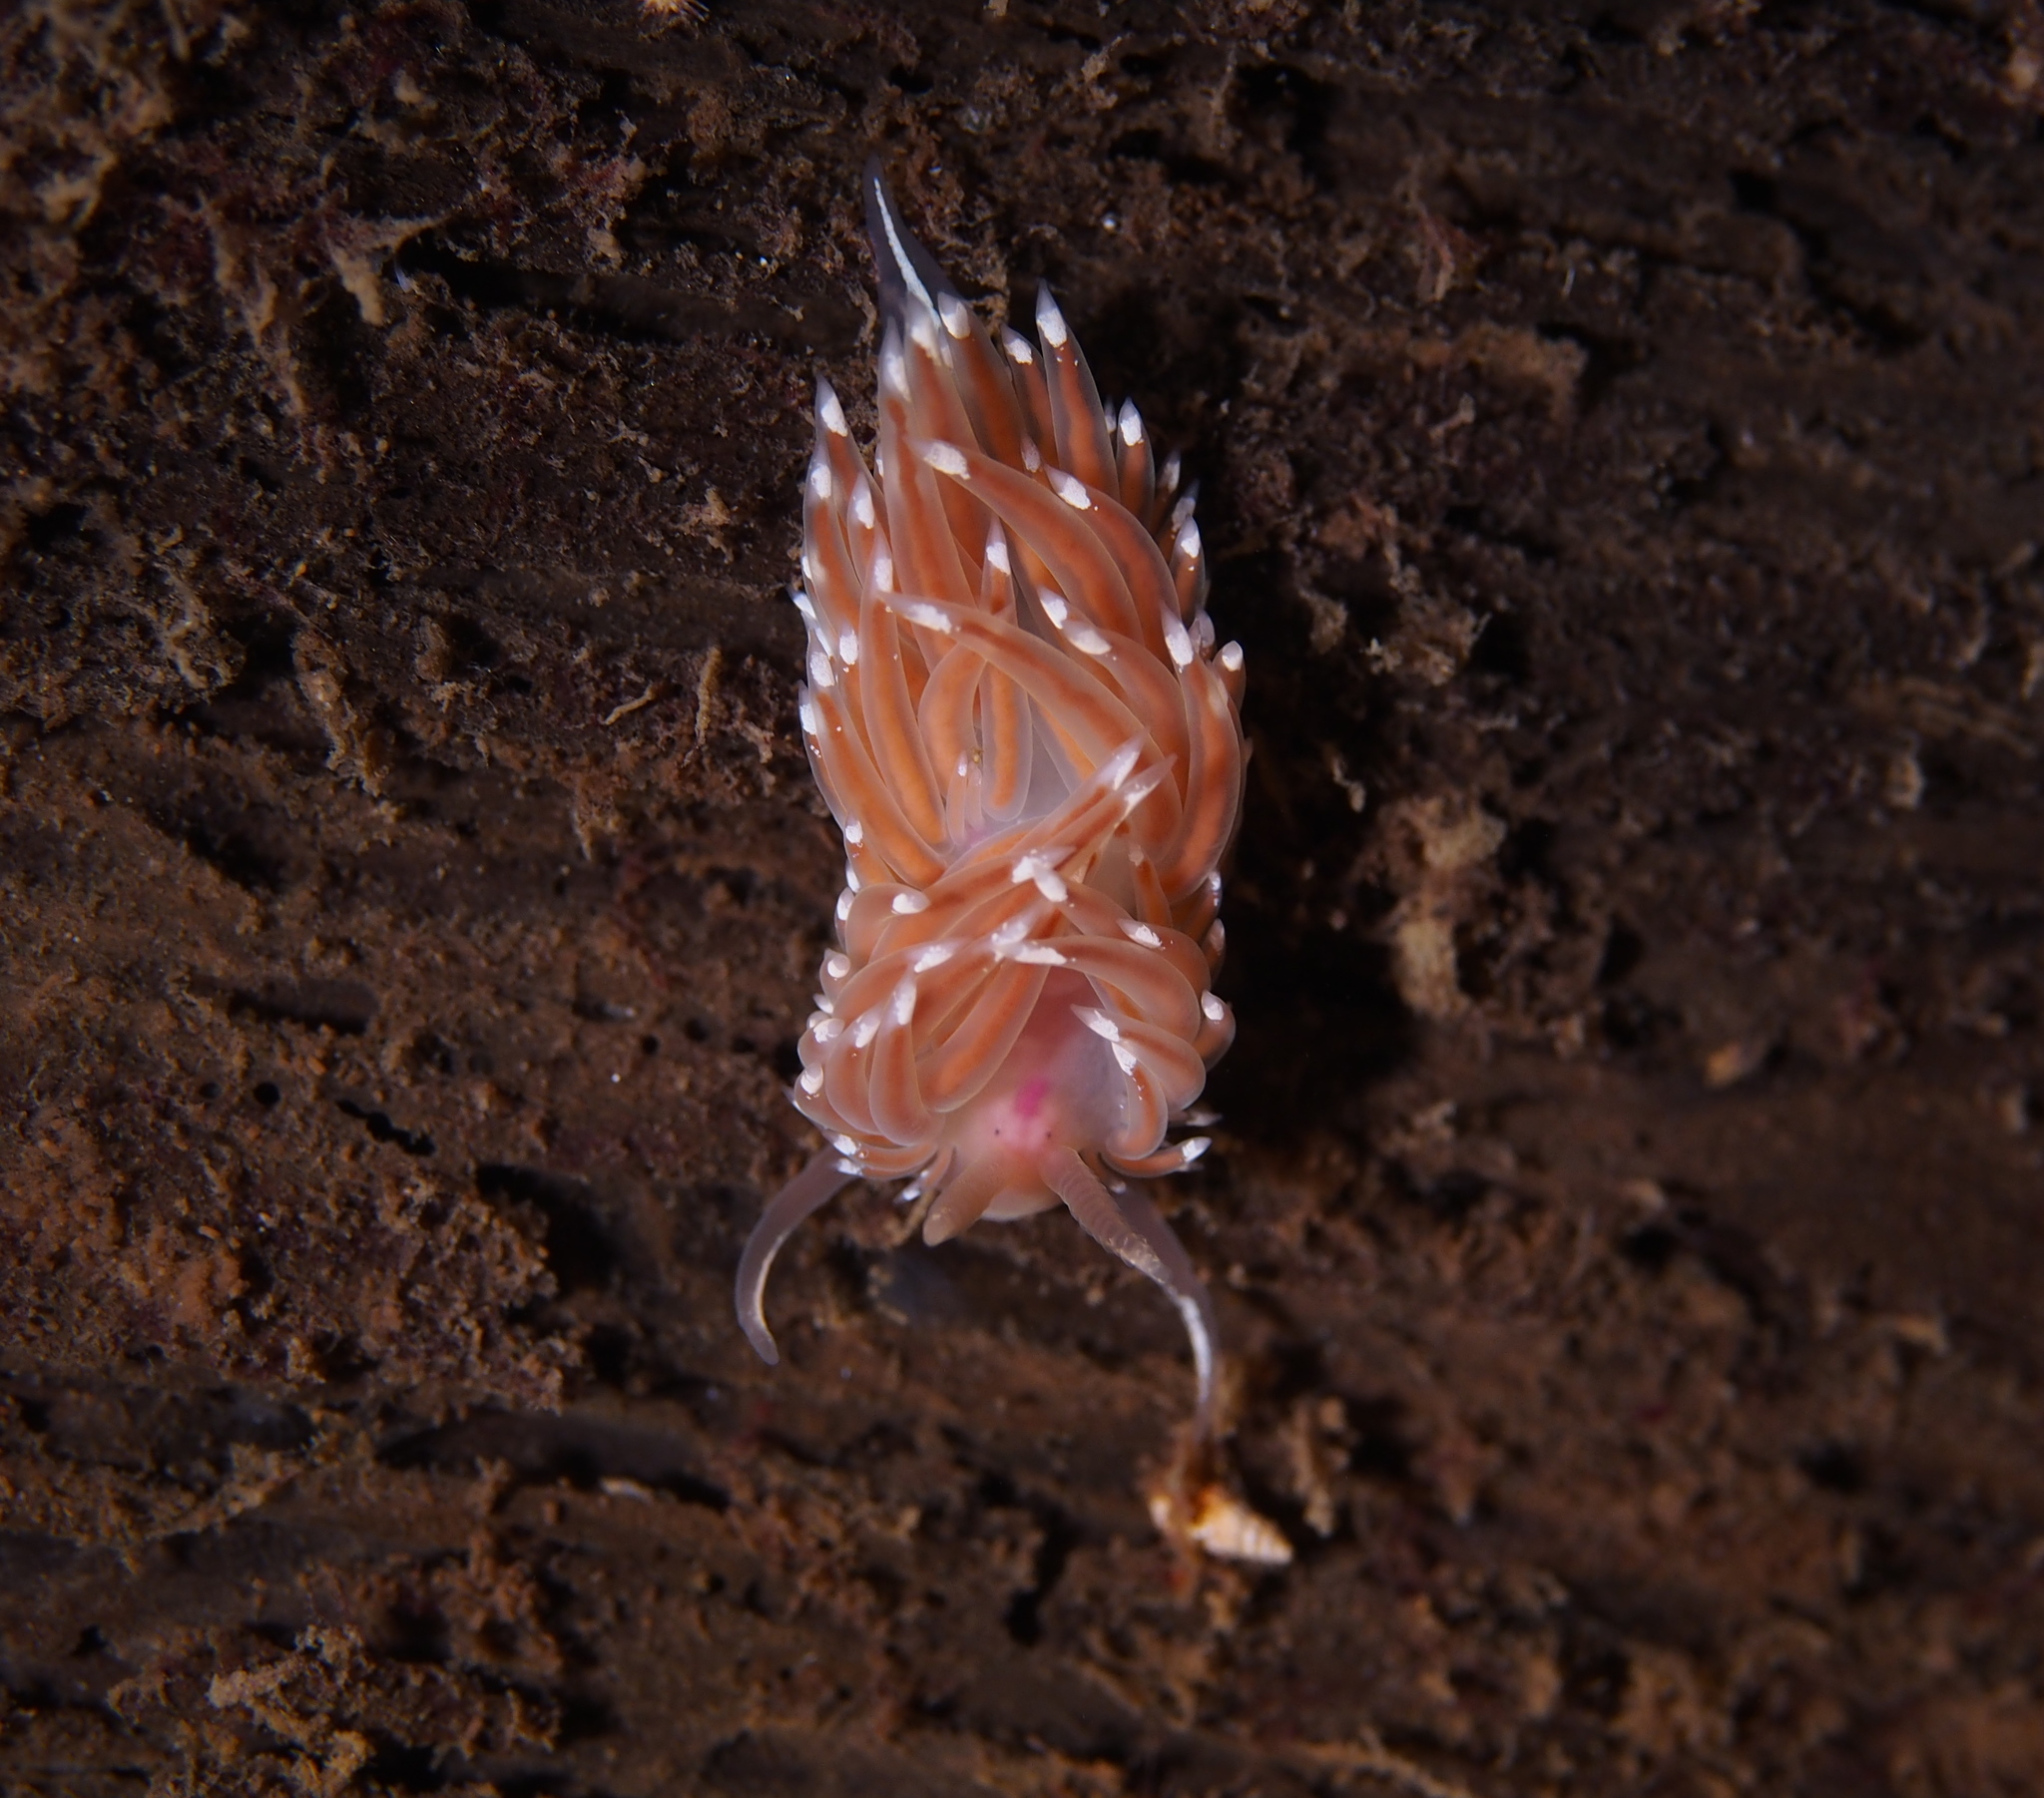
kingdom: Animalia
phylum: Mollusca
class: Gastropoda
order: Nudibranchia
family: Facelinidae
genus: Facelina
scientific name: Facelina bostoniensis
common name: Boston facelina
